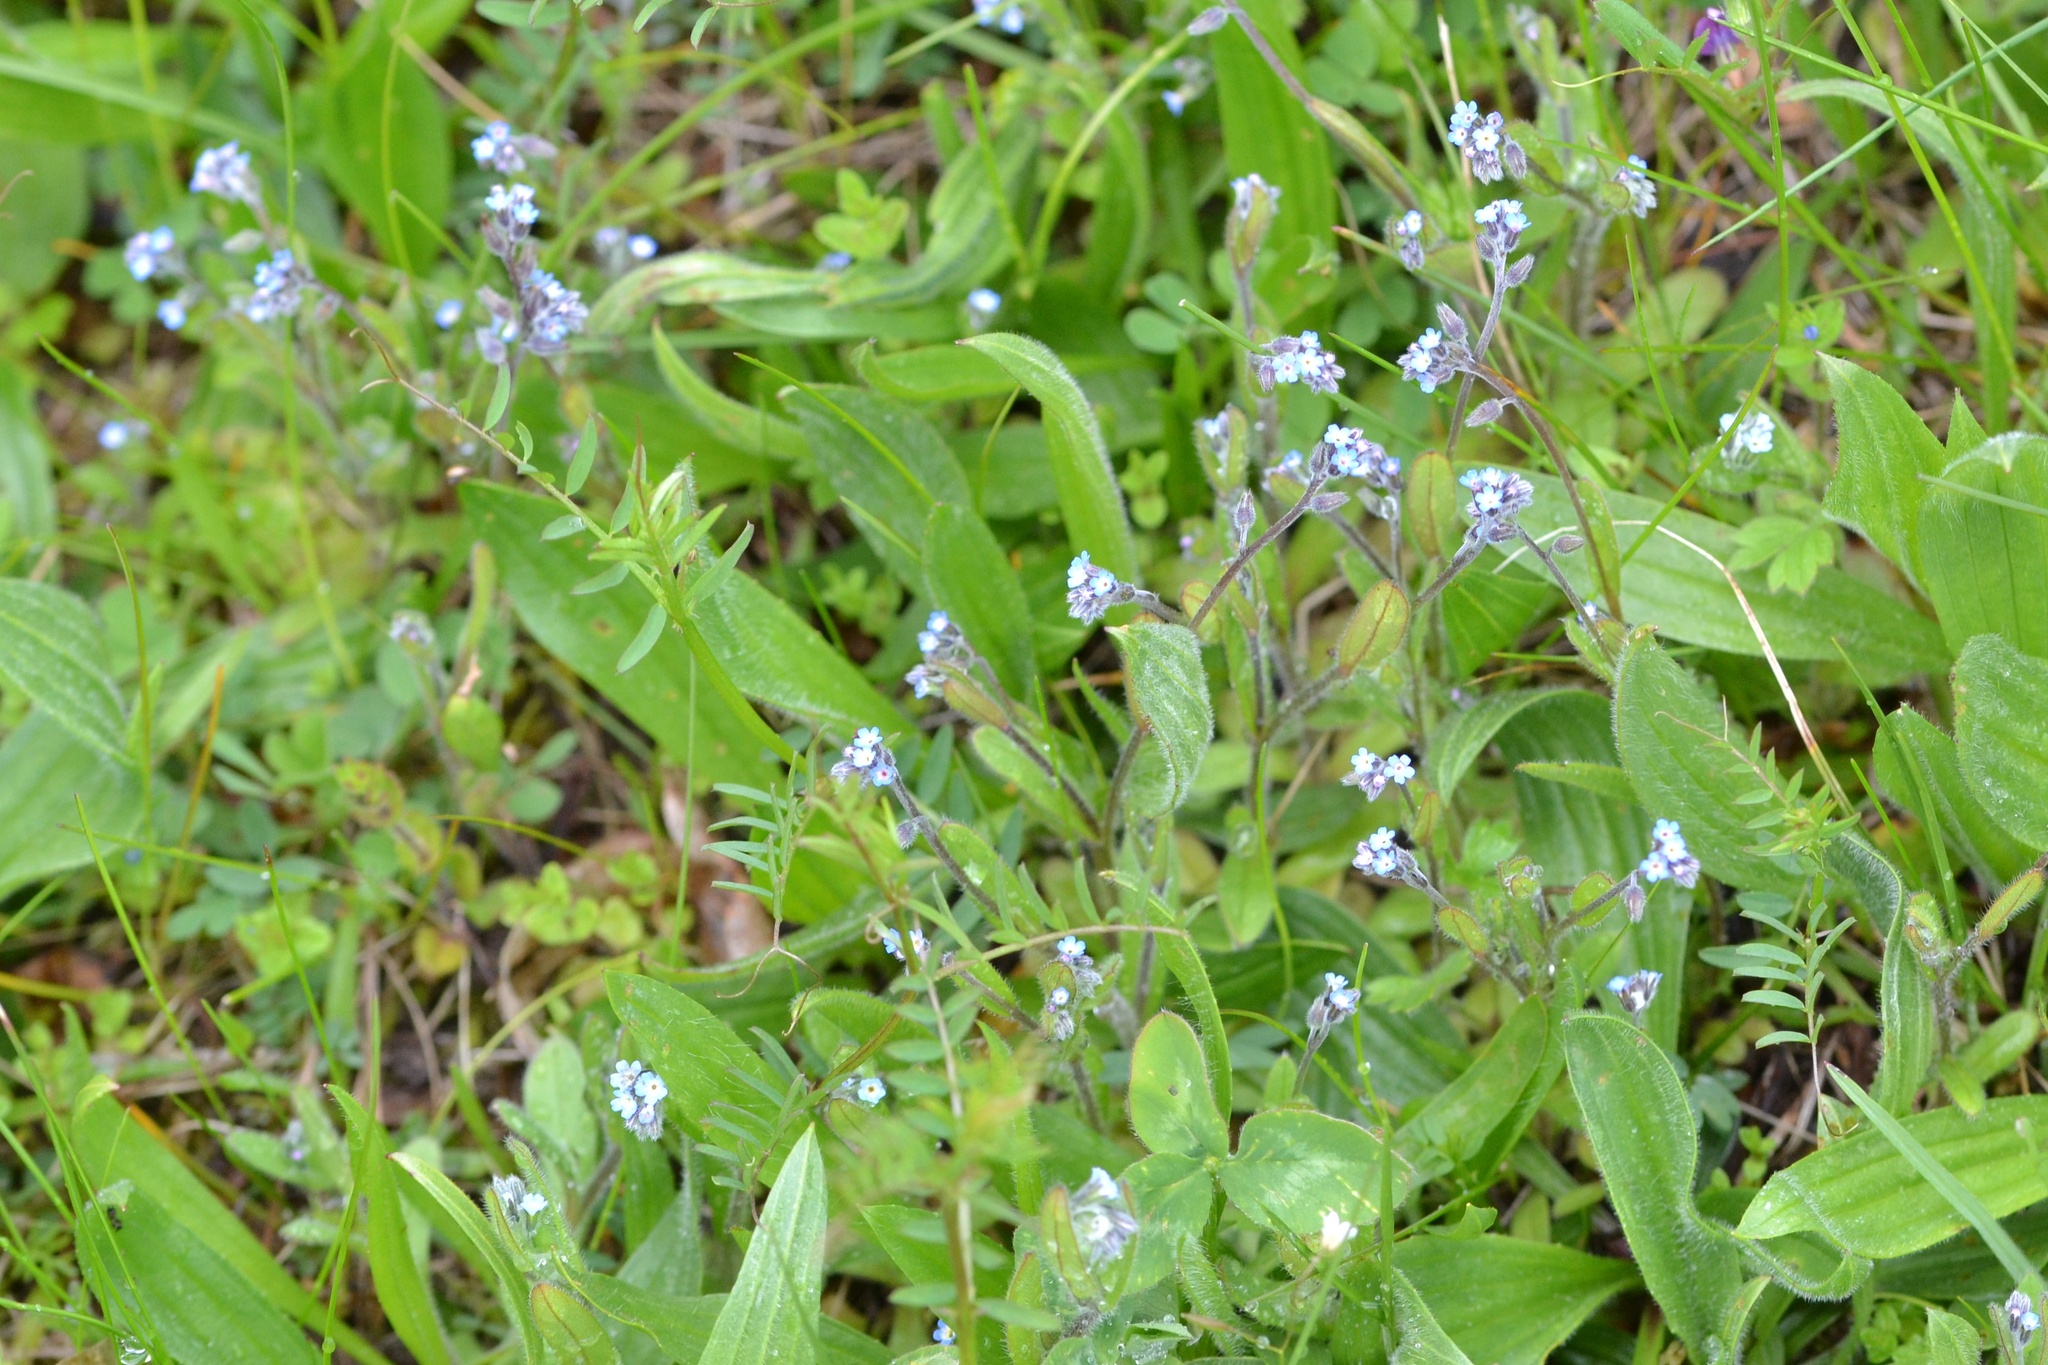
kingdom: Plantae
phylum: Tracheophyta
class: Magnoliopsida
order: Boraginales
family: Boraginaceae
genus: Myosotis
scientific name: Myosotis ramosissima
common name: Early forget-me-not
